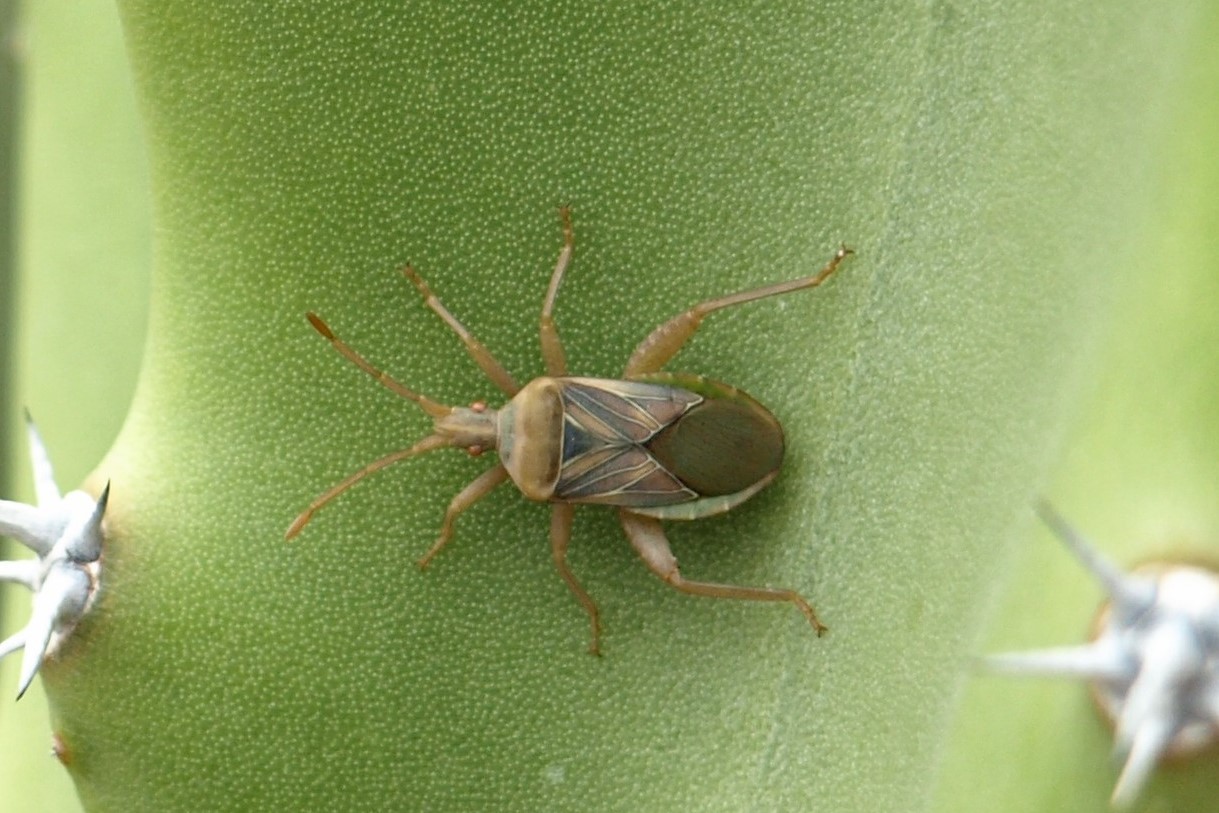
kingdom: Animalia
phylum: Arthropoda
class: Insecta
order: Hemiptera
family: Coreidae
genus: Chelinidea
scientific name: Chelinidea hunteri
